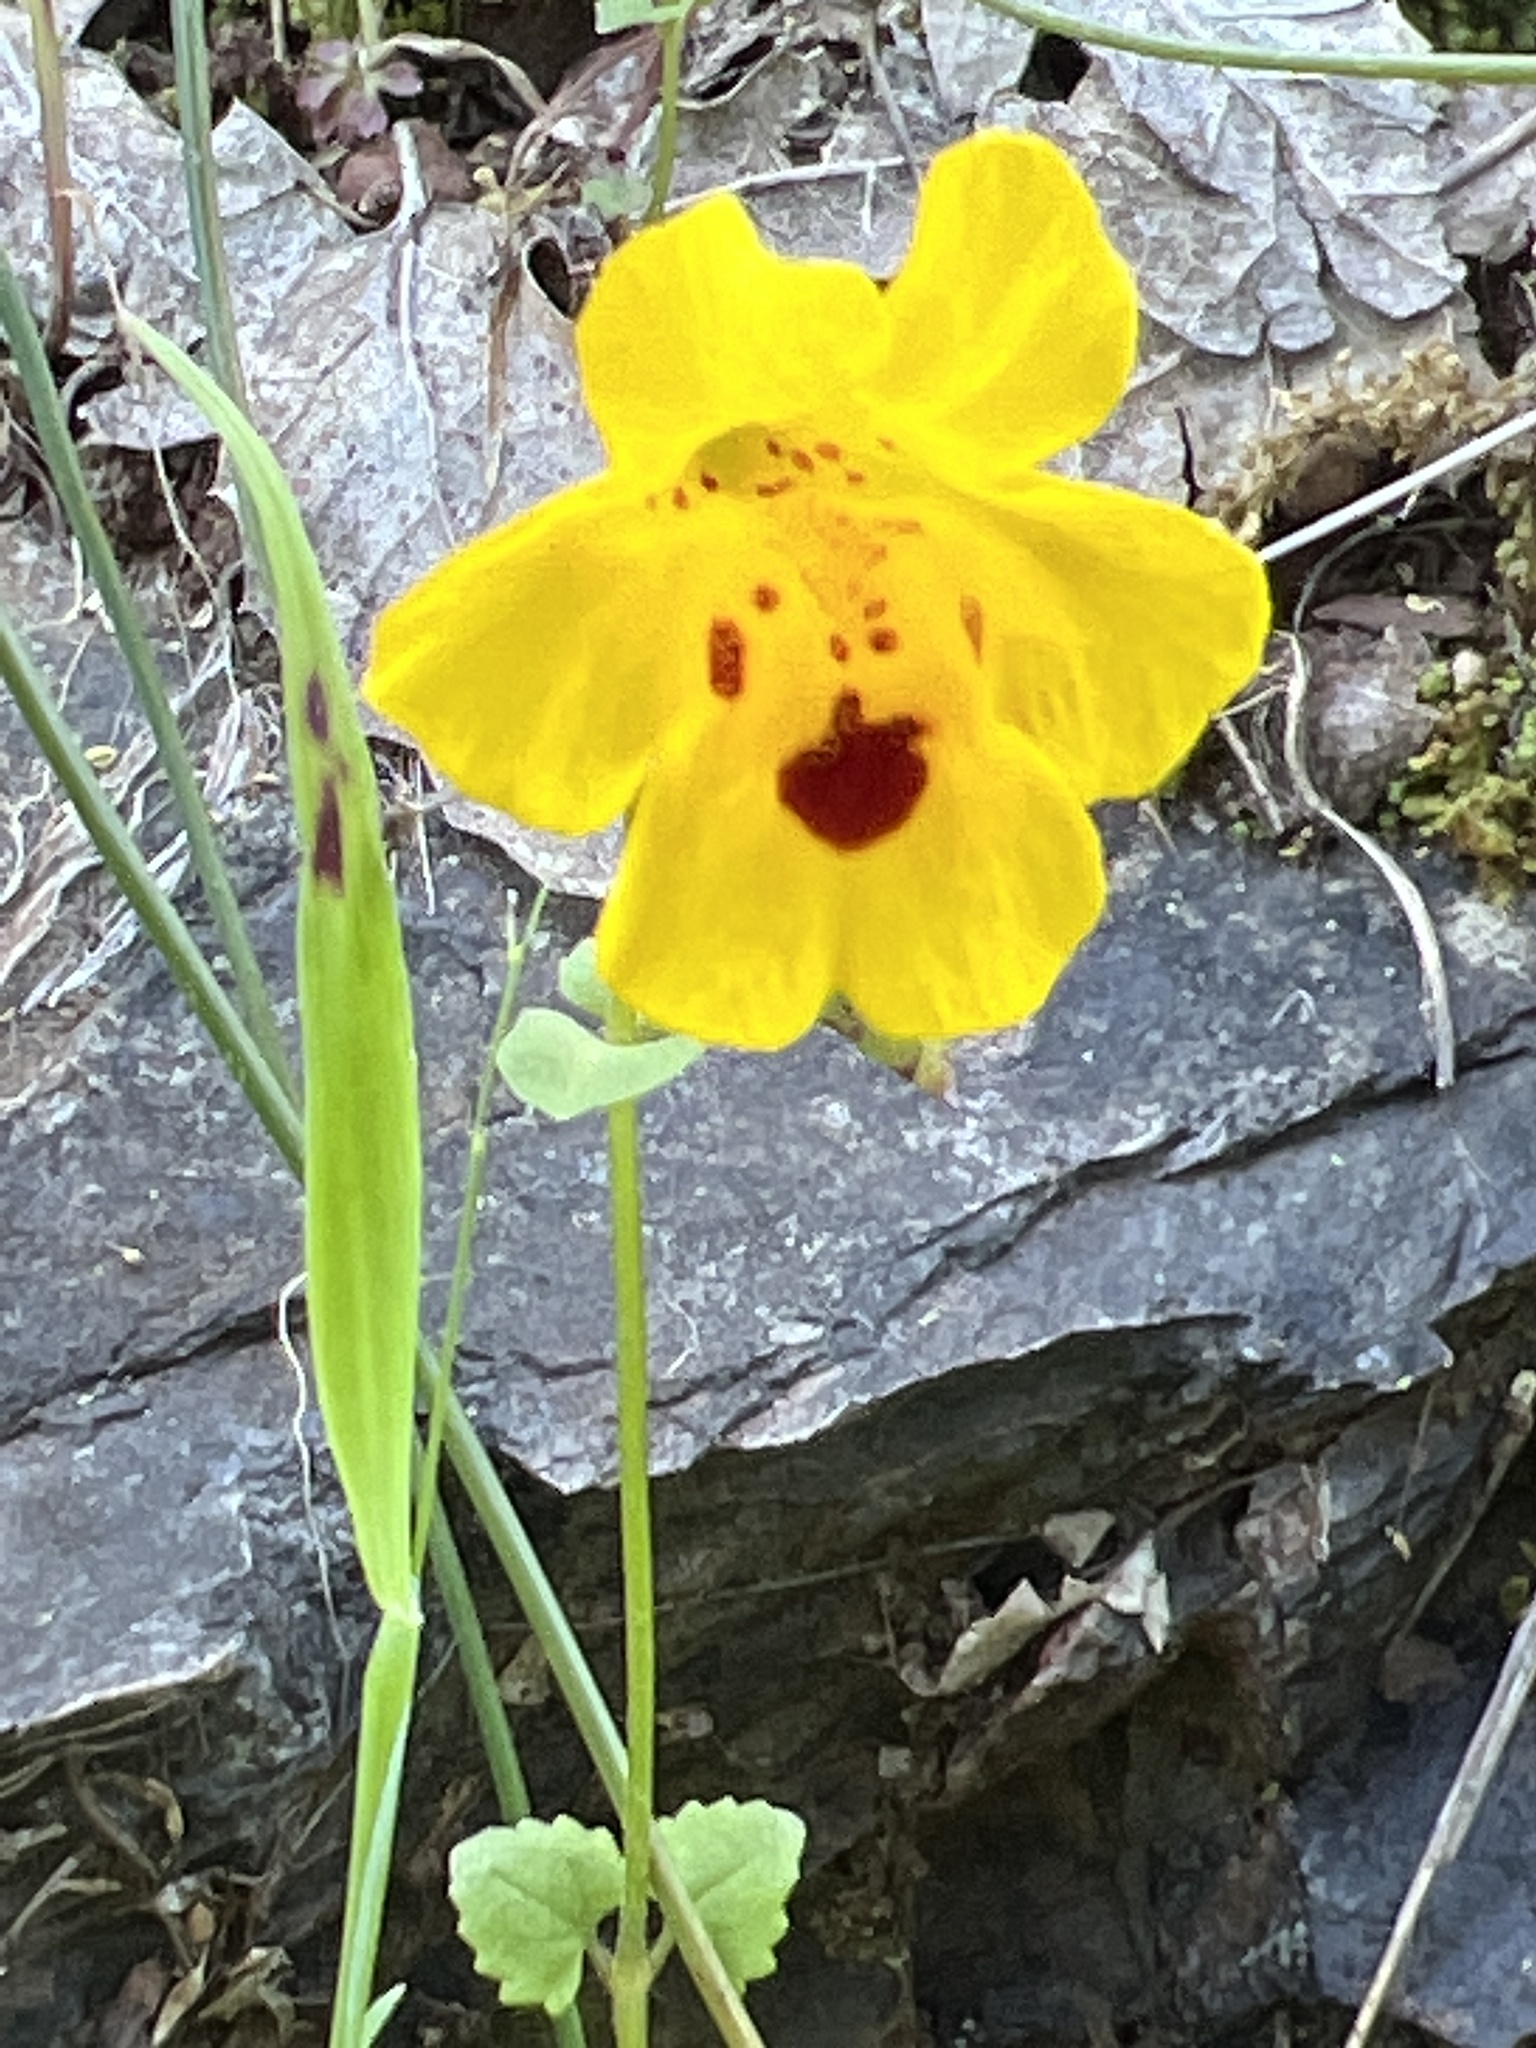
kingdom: Plantae
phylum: Tracheophyta
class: Magnoliopsida
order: Lamiales
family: Phrymaceae
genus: Erythranthe
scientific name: Erythranthe guttata
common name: Monkeyflower
